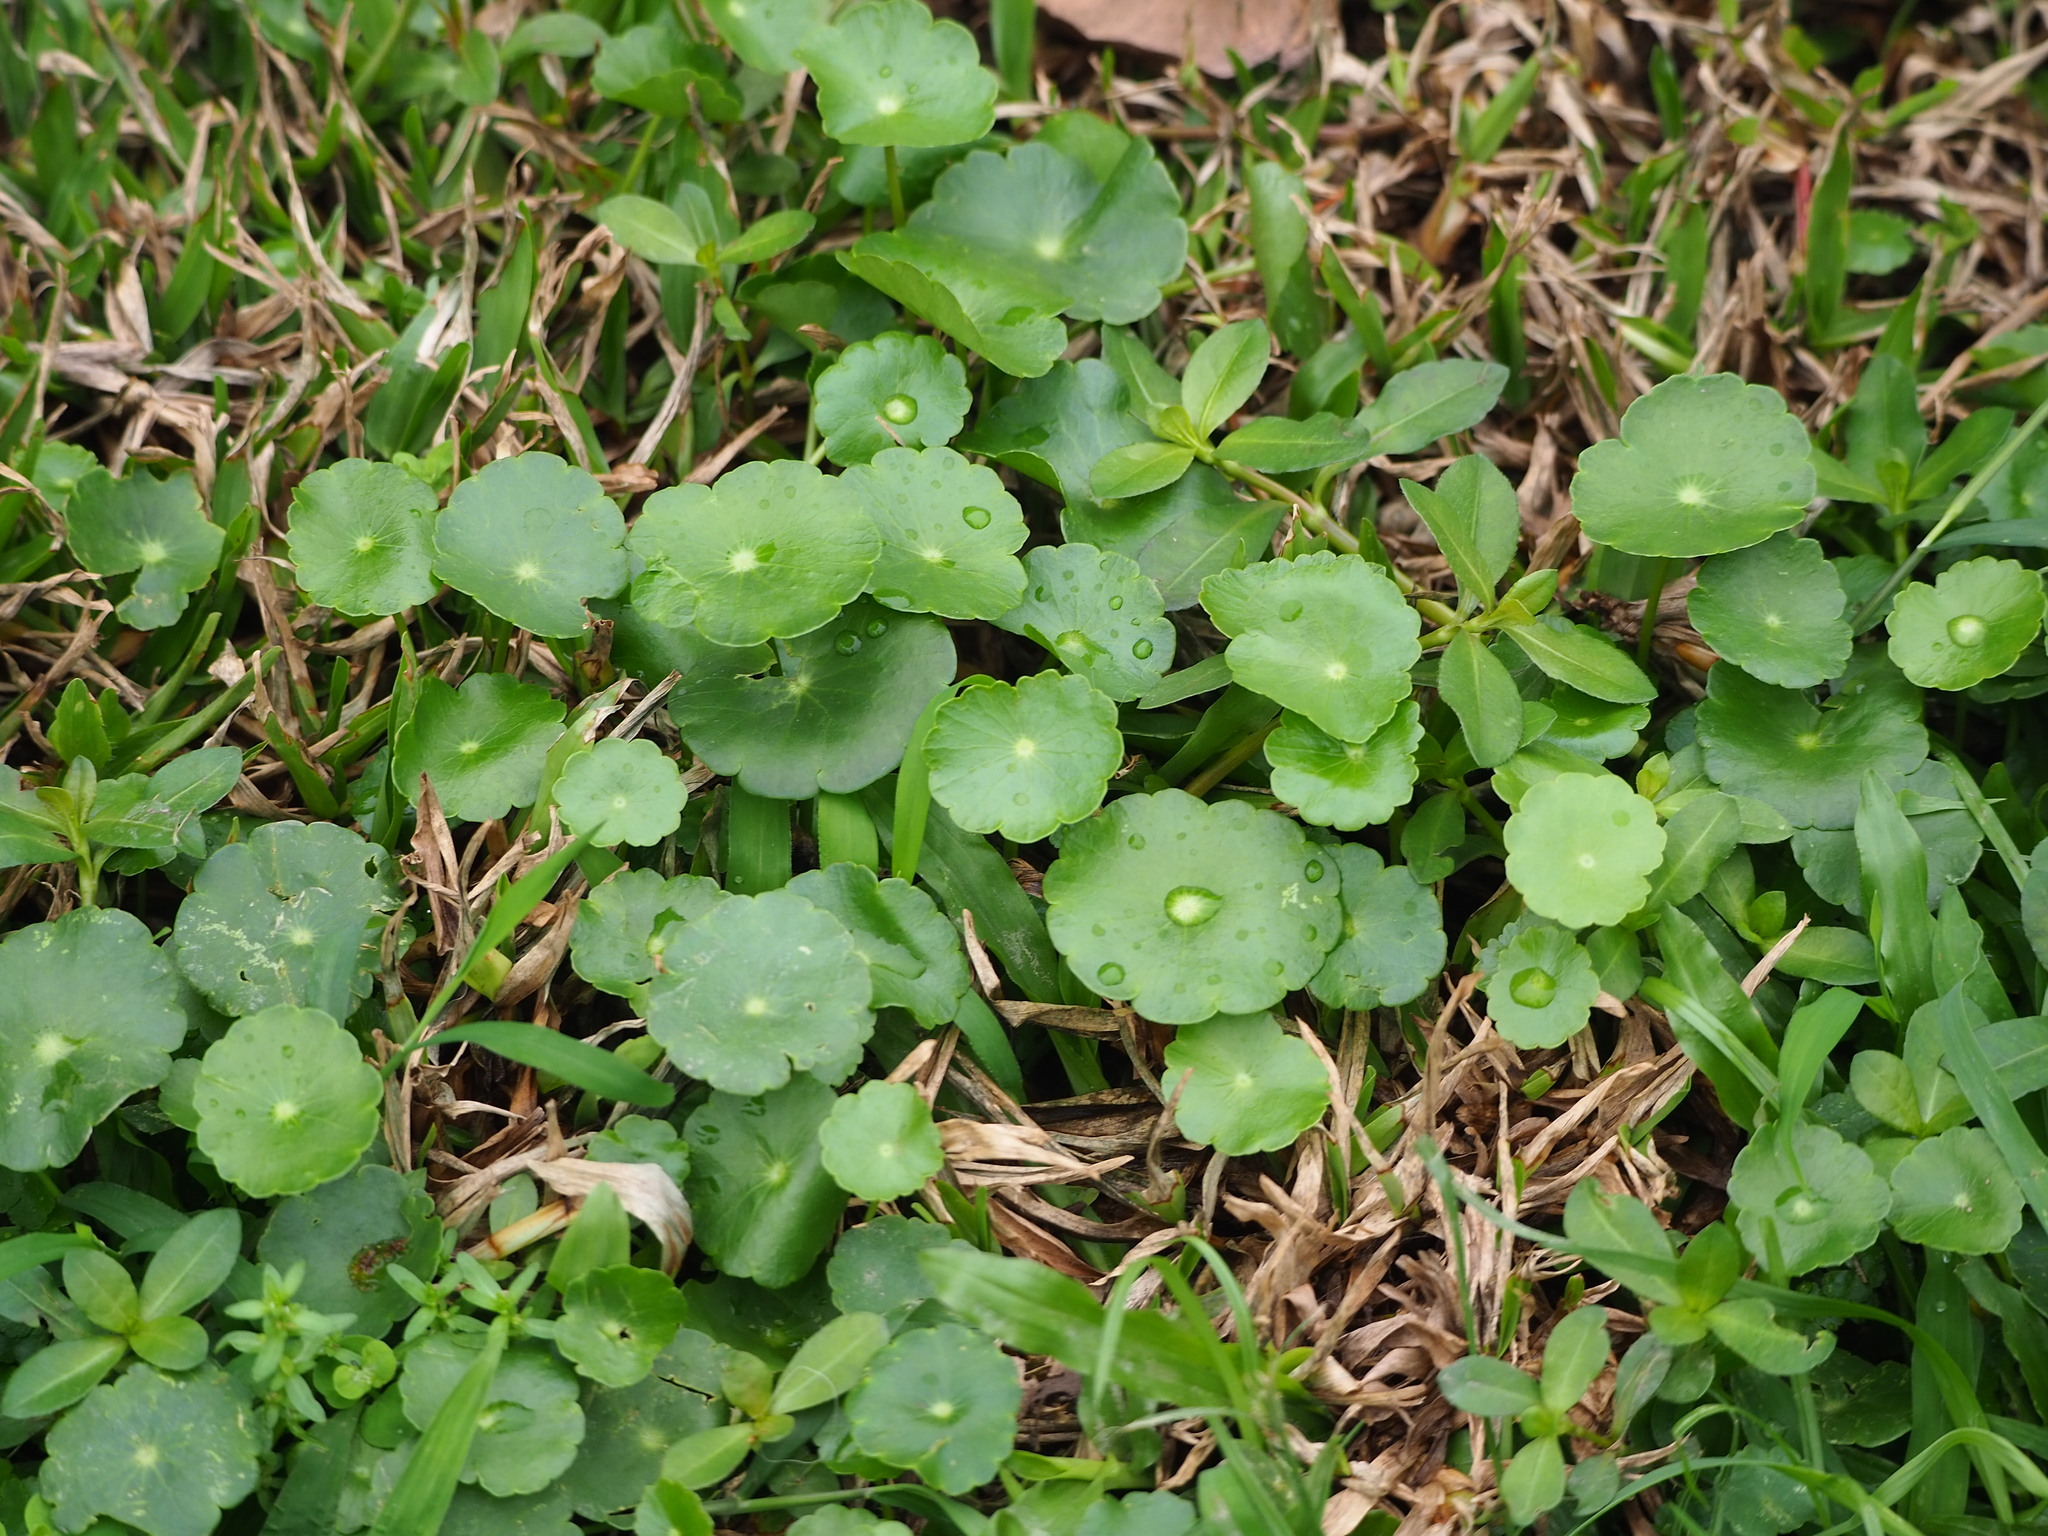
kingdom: Plantae
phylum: Tracheophyta
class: Magnoliopsida
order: Apiales
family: Araliaceae
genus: Hydrocotyle
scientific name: Hydrocotyle verticillata
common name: Whorled marshpennywort
